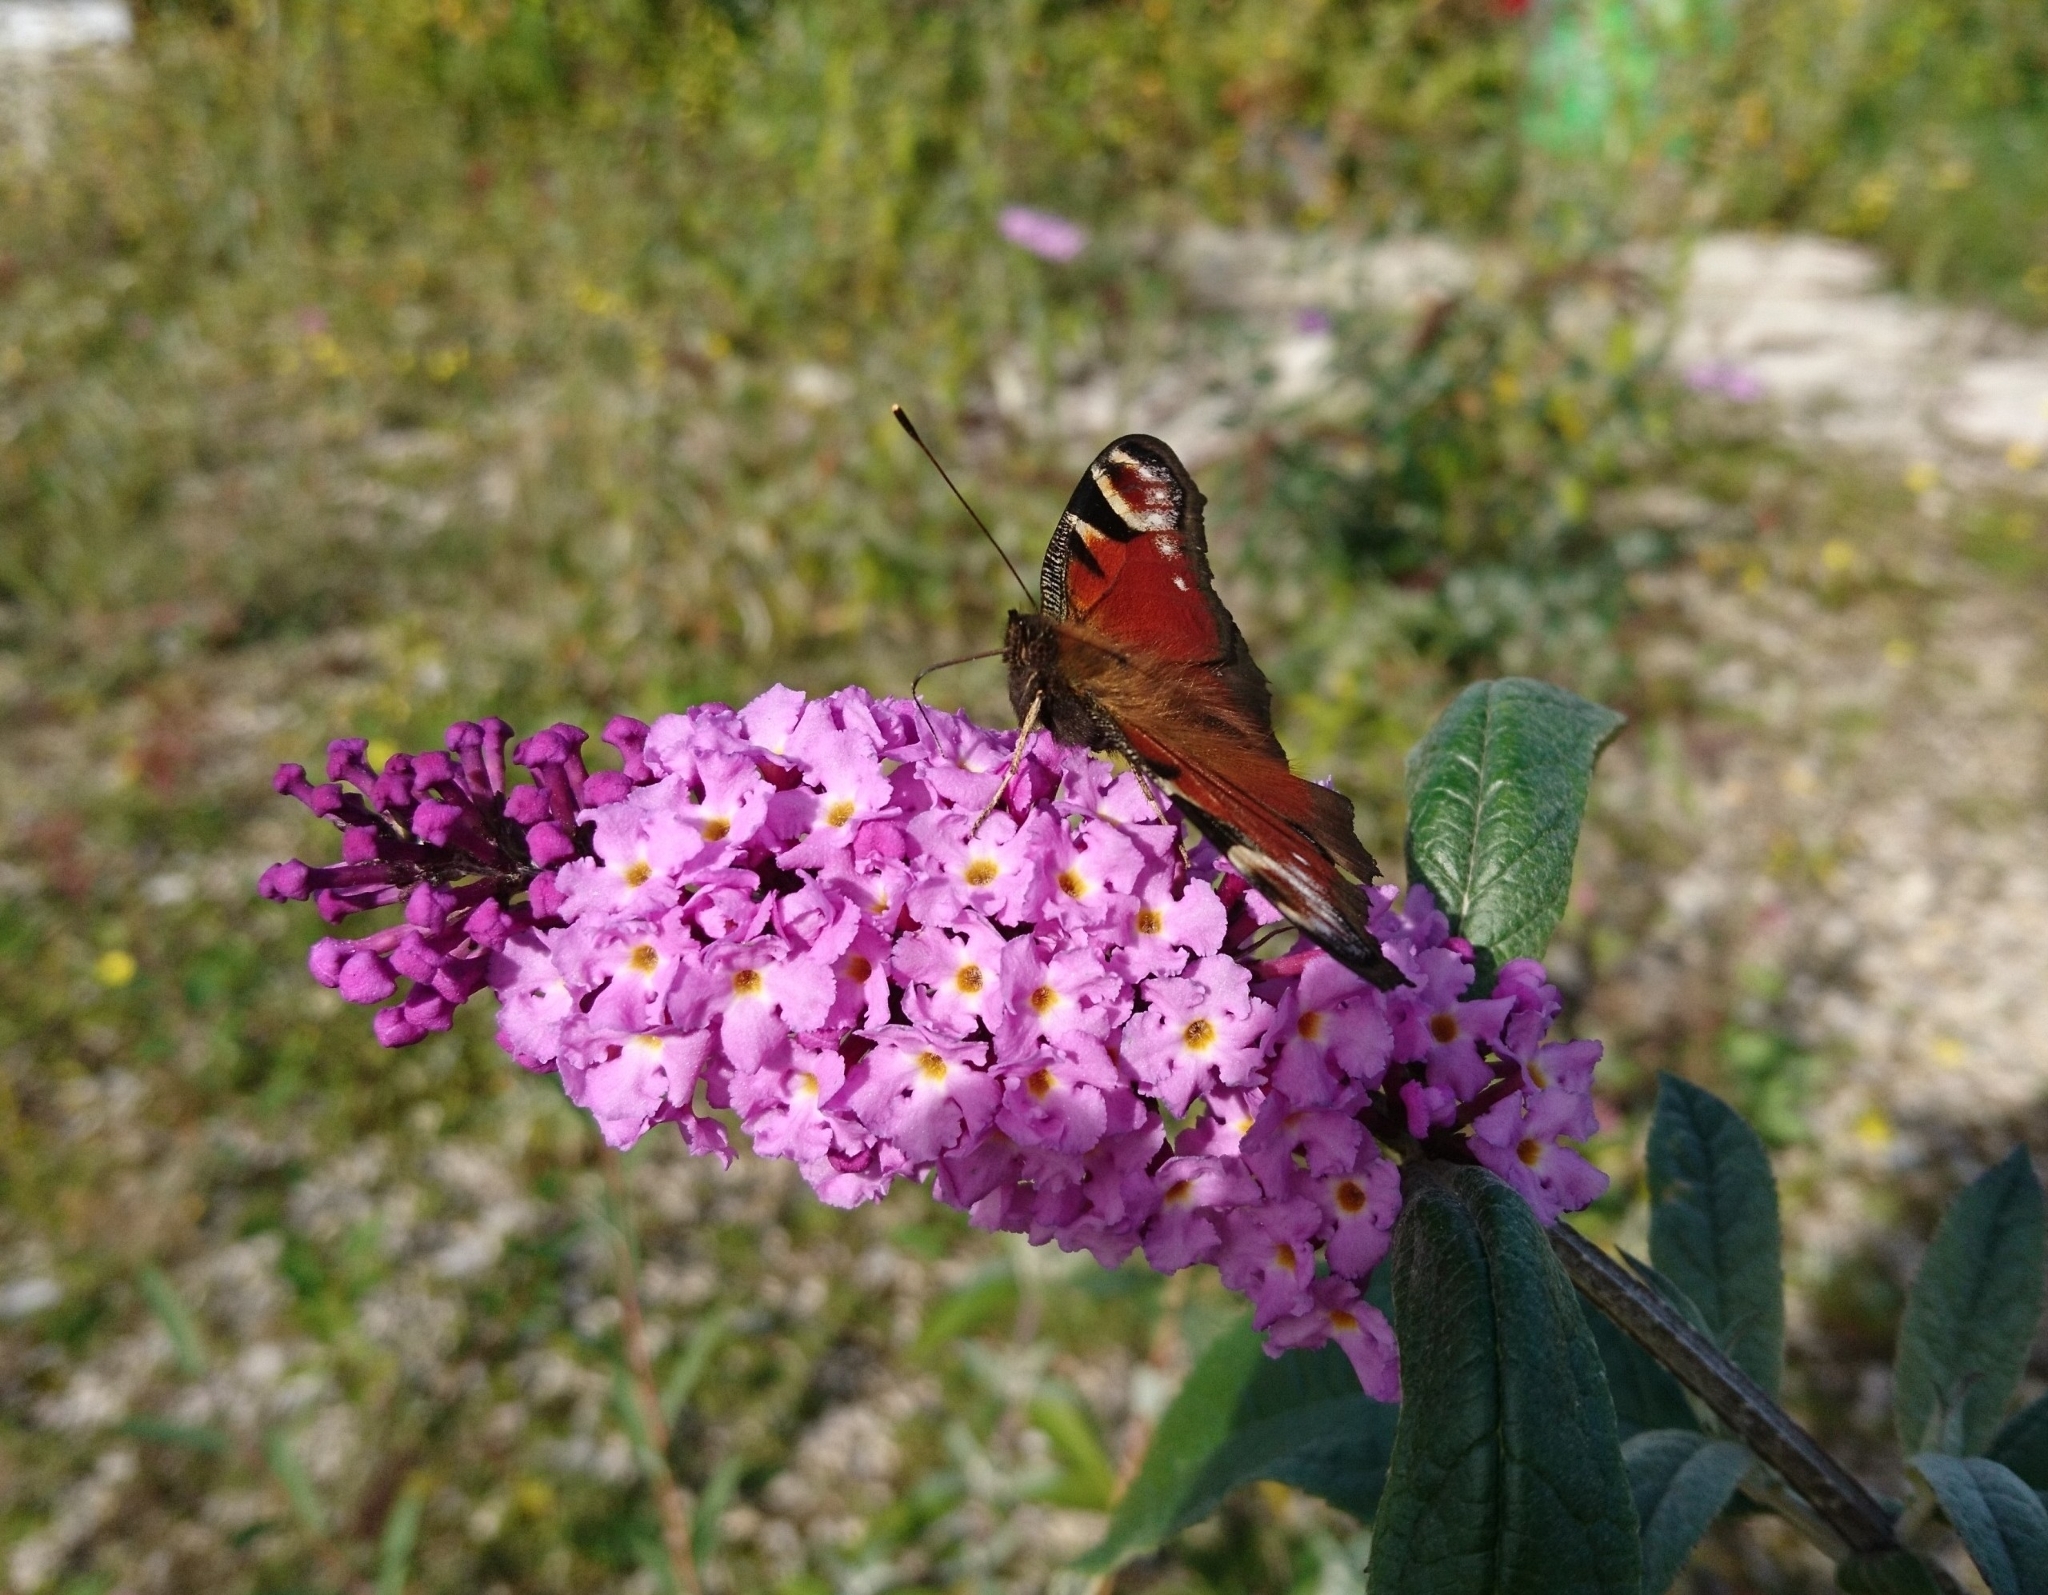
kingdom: Animalia
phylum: Arthropoda
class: Insecta
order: Lepidoptera
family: Nymphalidae
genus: Aglais
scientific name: Aglais io
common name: Peacock
